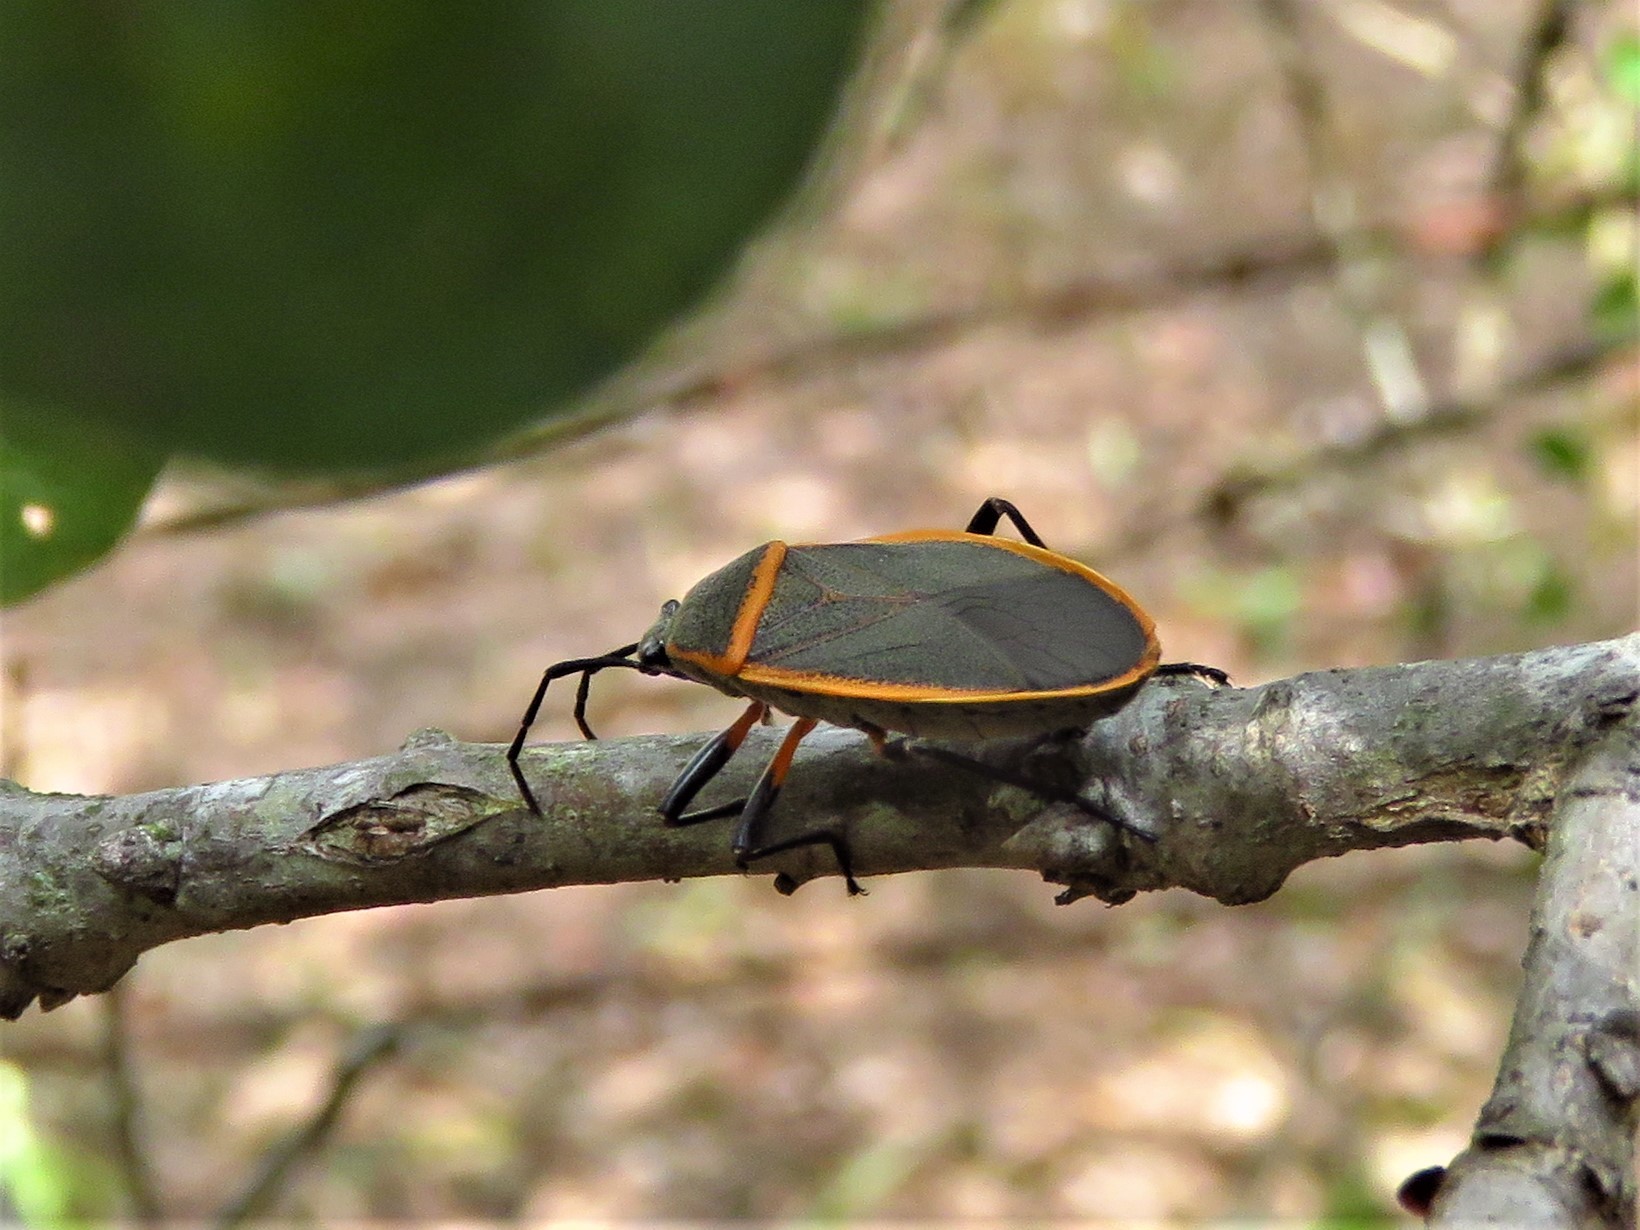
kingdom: Animalia
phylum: Arthropoda
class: Insecta
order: Hemiptera
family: Largidae
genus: Largus
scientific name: Largus succinctus
